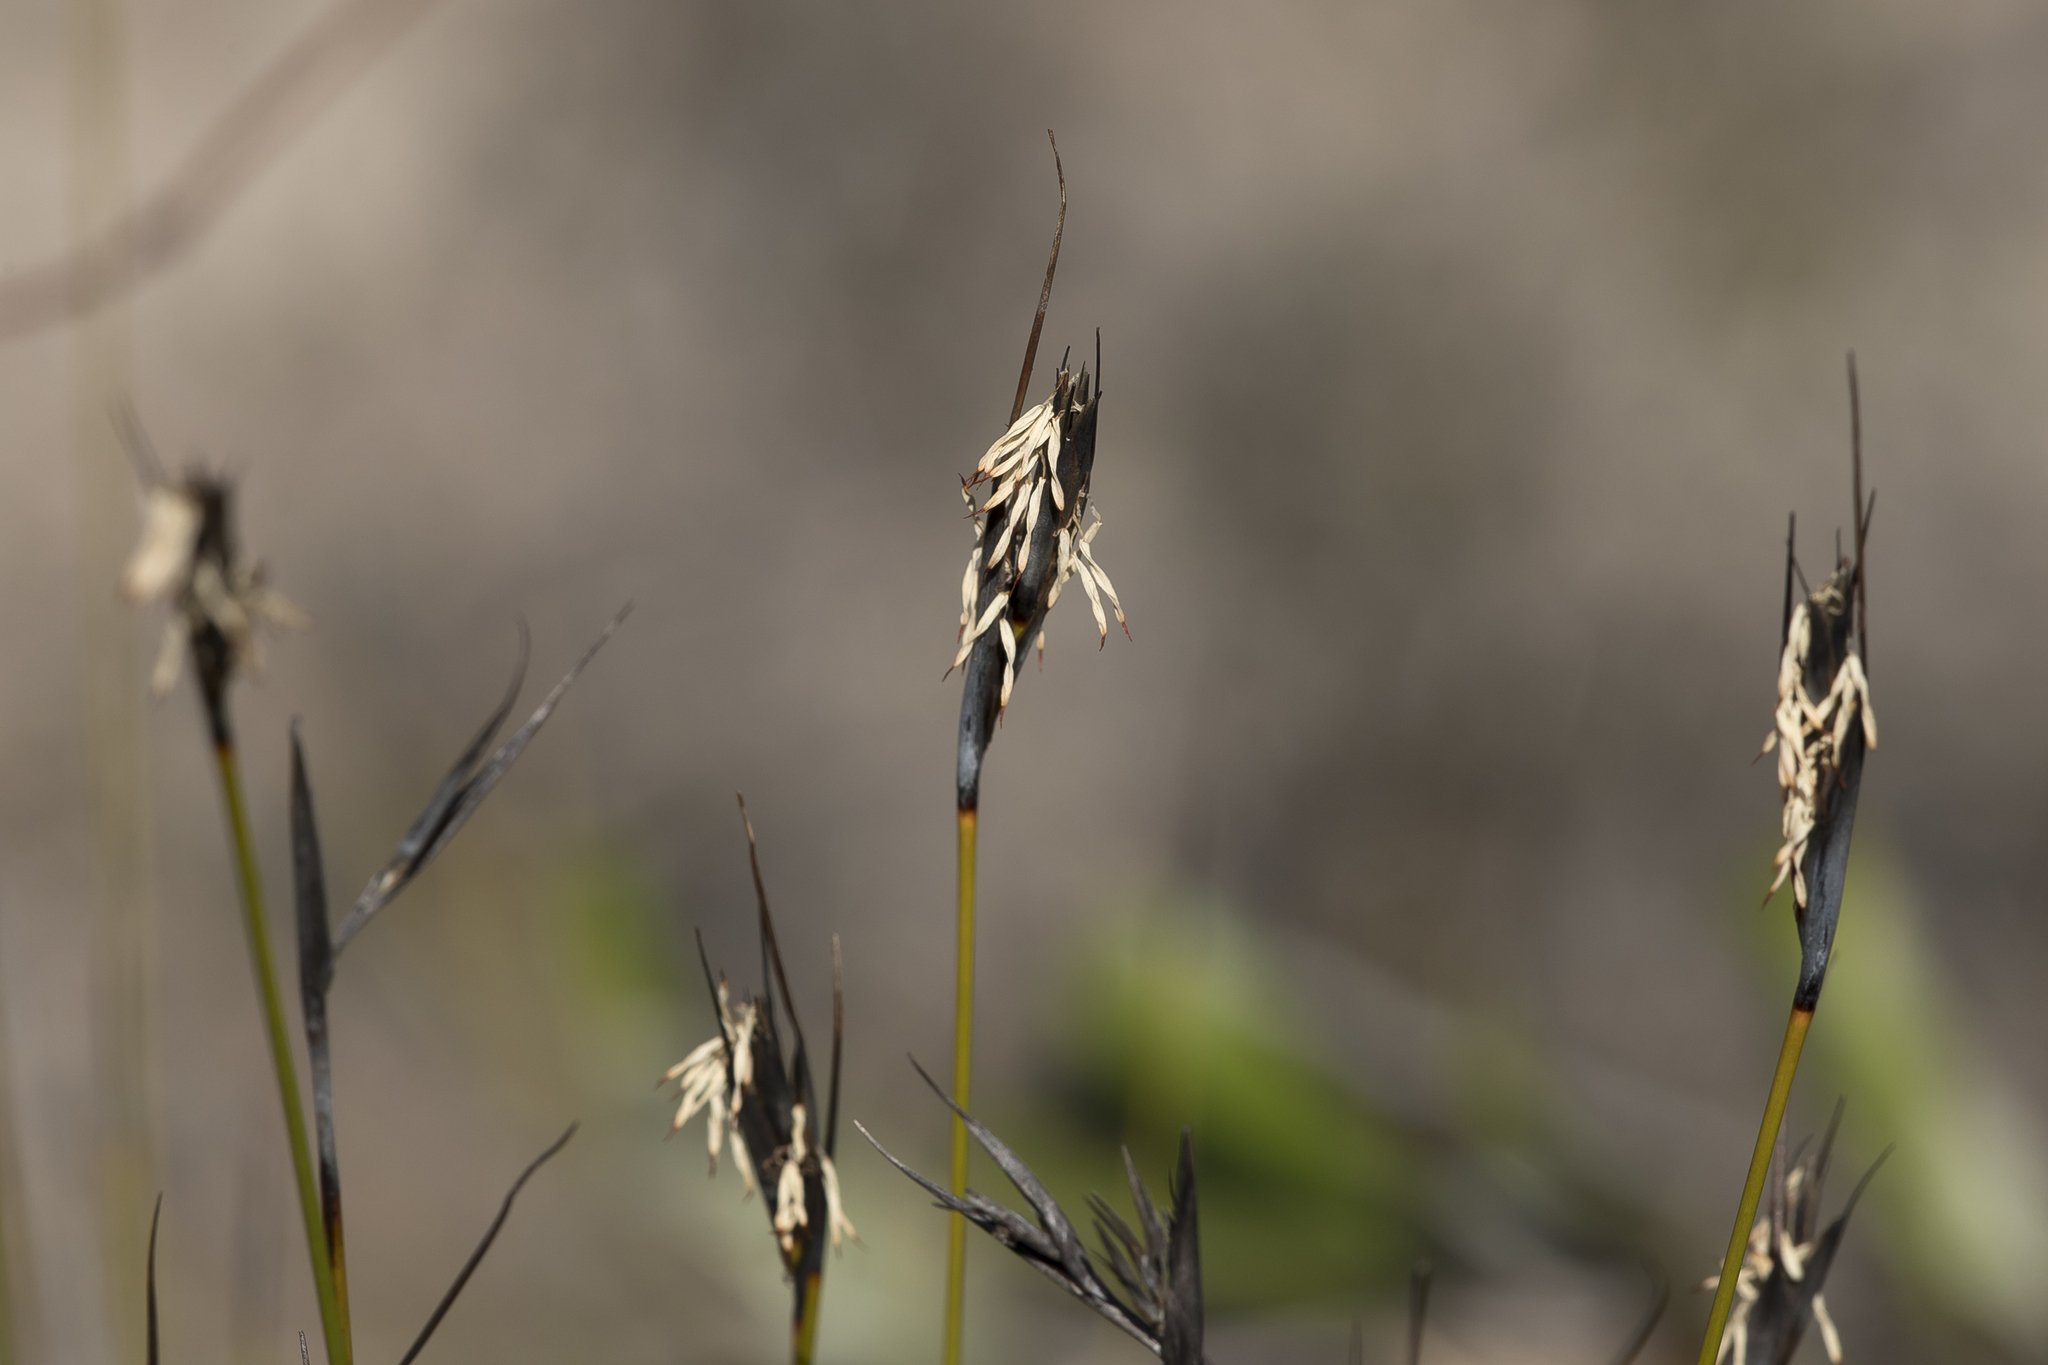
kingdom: Plantae
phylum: Tracheophyta
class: Liliopsida
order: Poales
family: Cyperaceae
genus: Lepidosperma
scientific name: Lepidosperma carphoides
